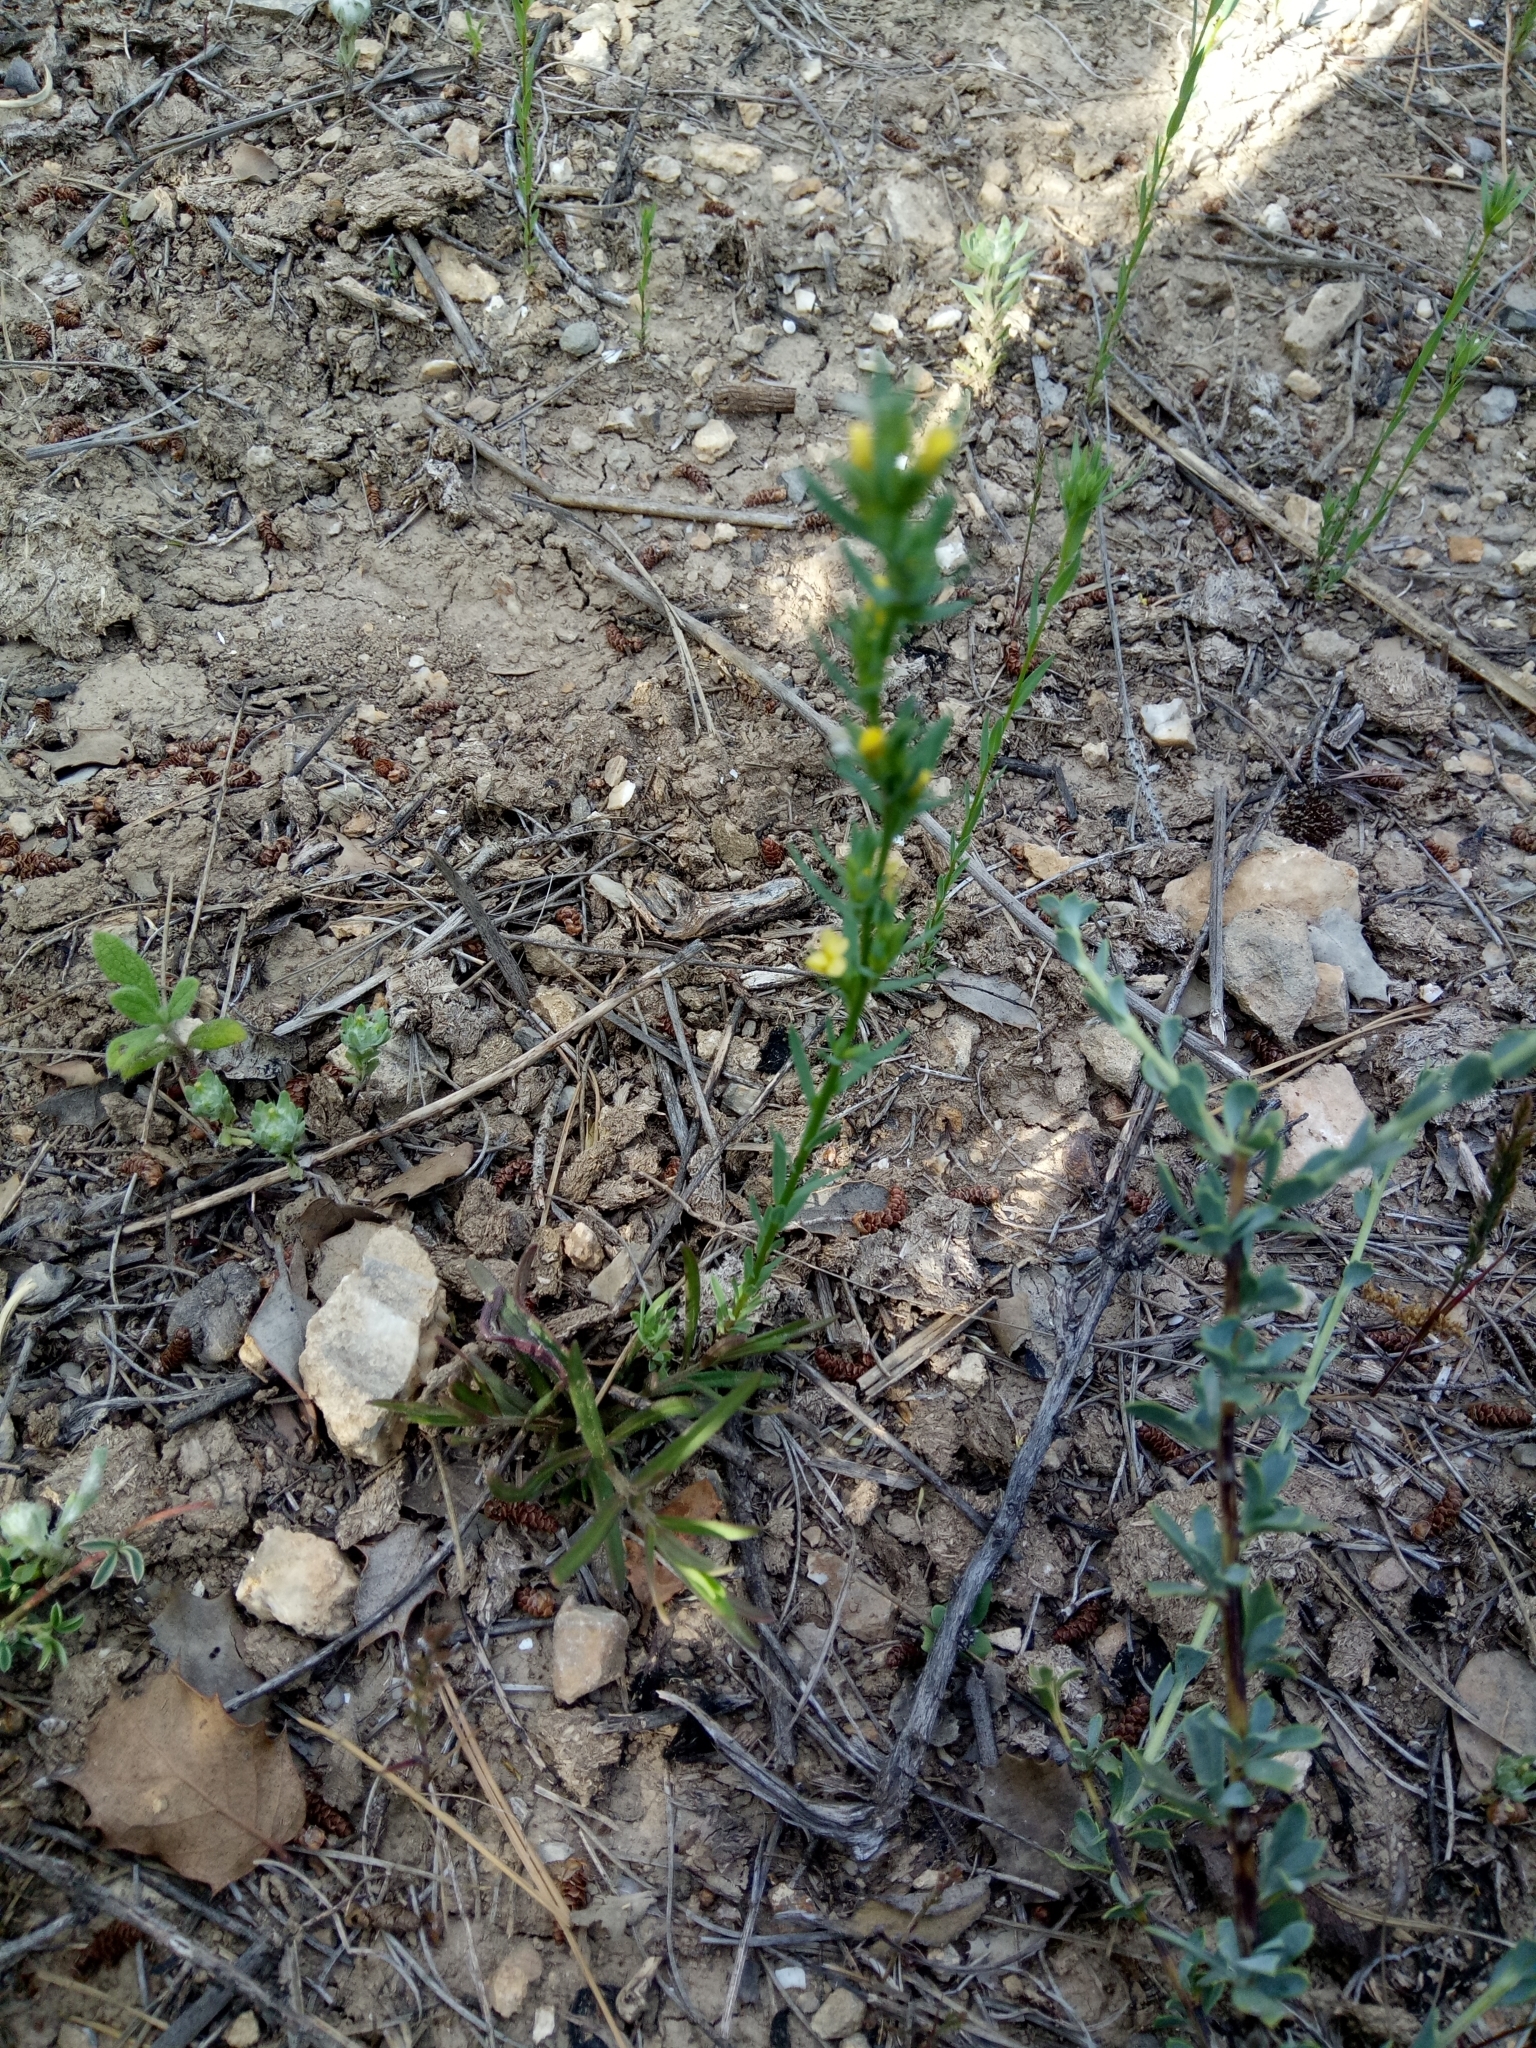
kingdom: Plantae
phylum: Tracheophyta
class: Magnoliopsida
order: Malpighiales
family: Linaceae
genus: Linum
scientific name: Linum strictum
